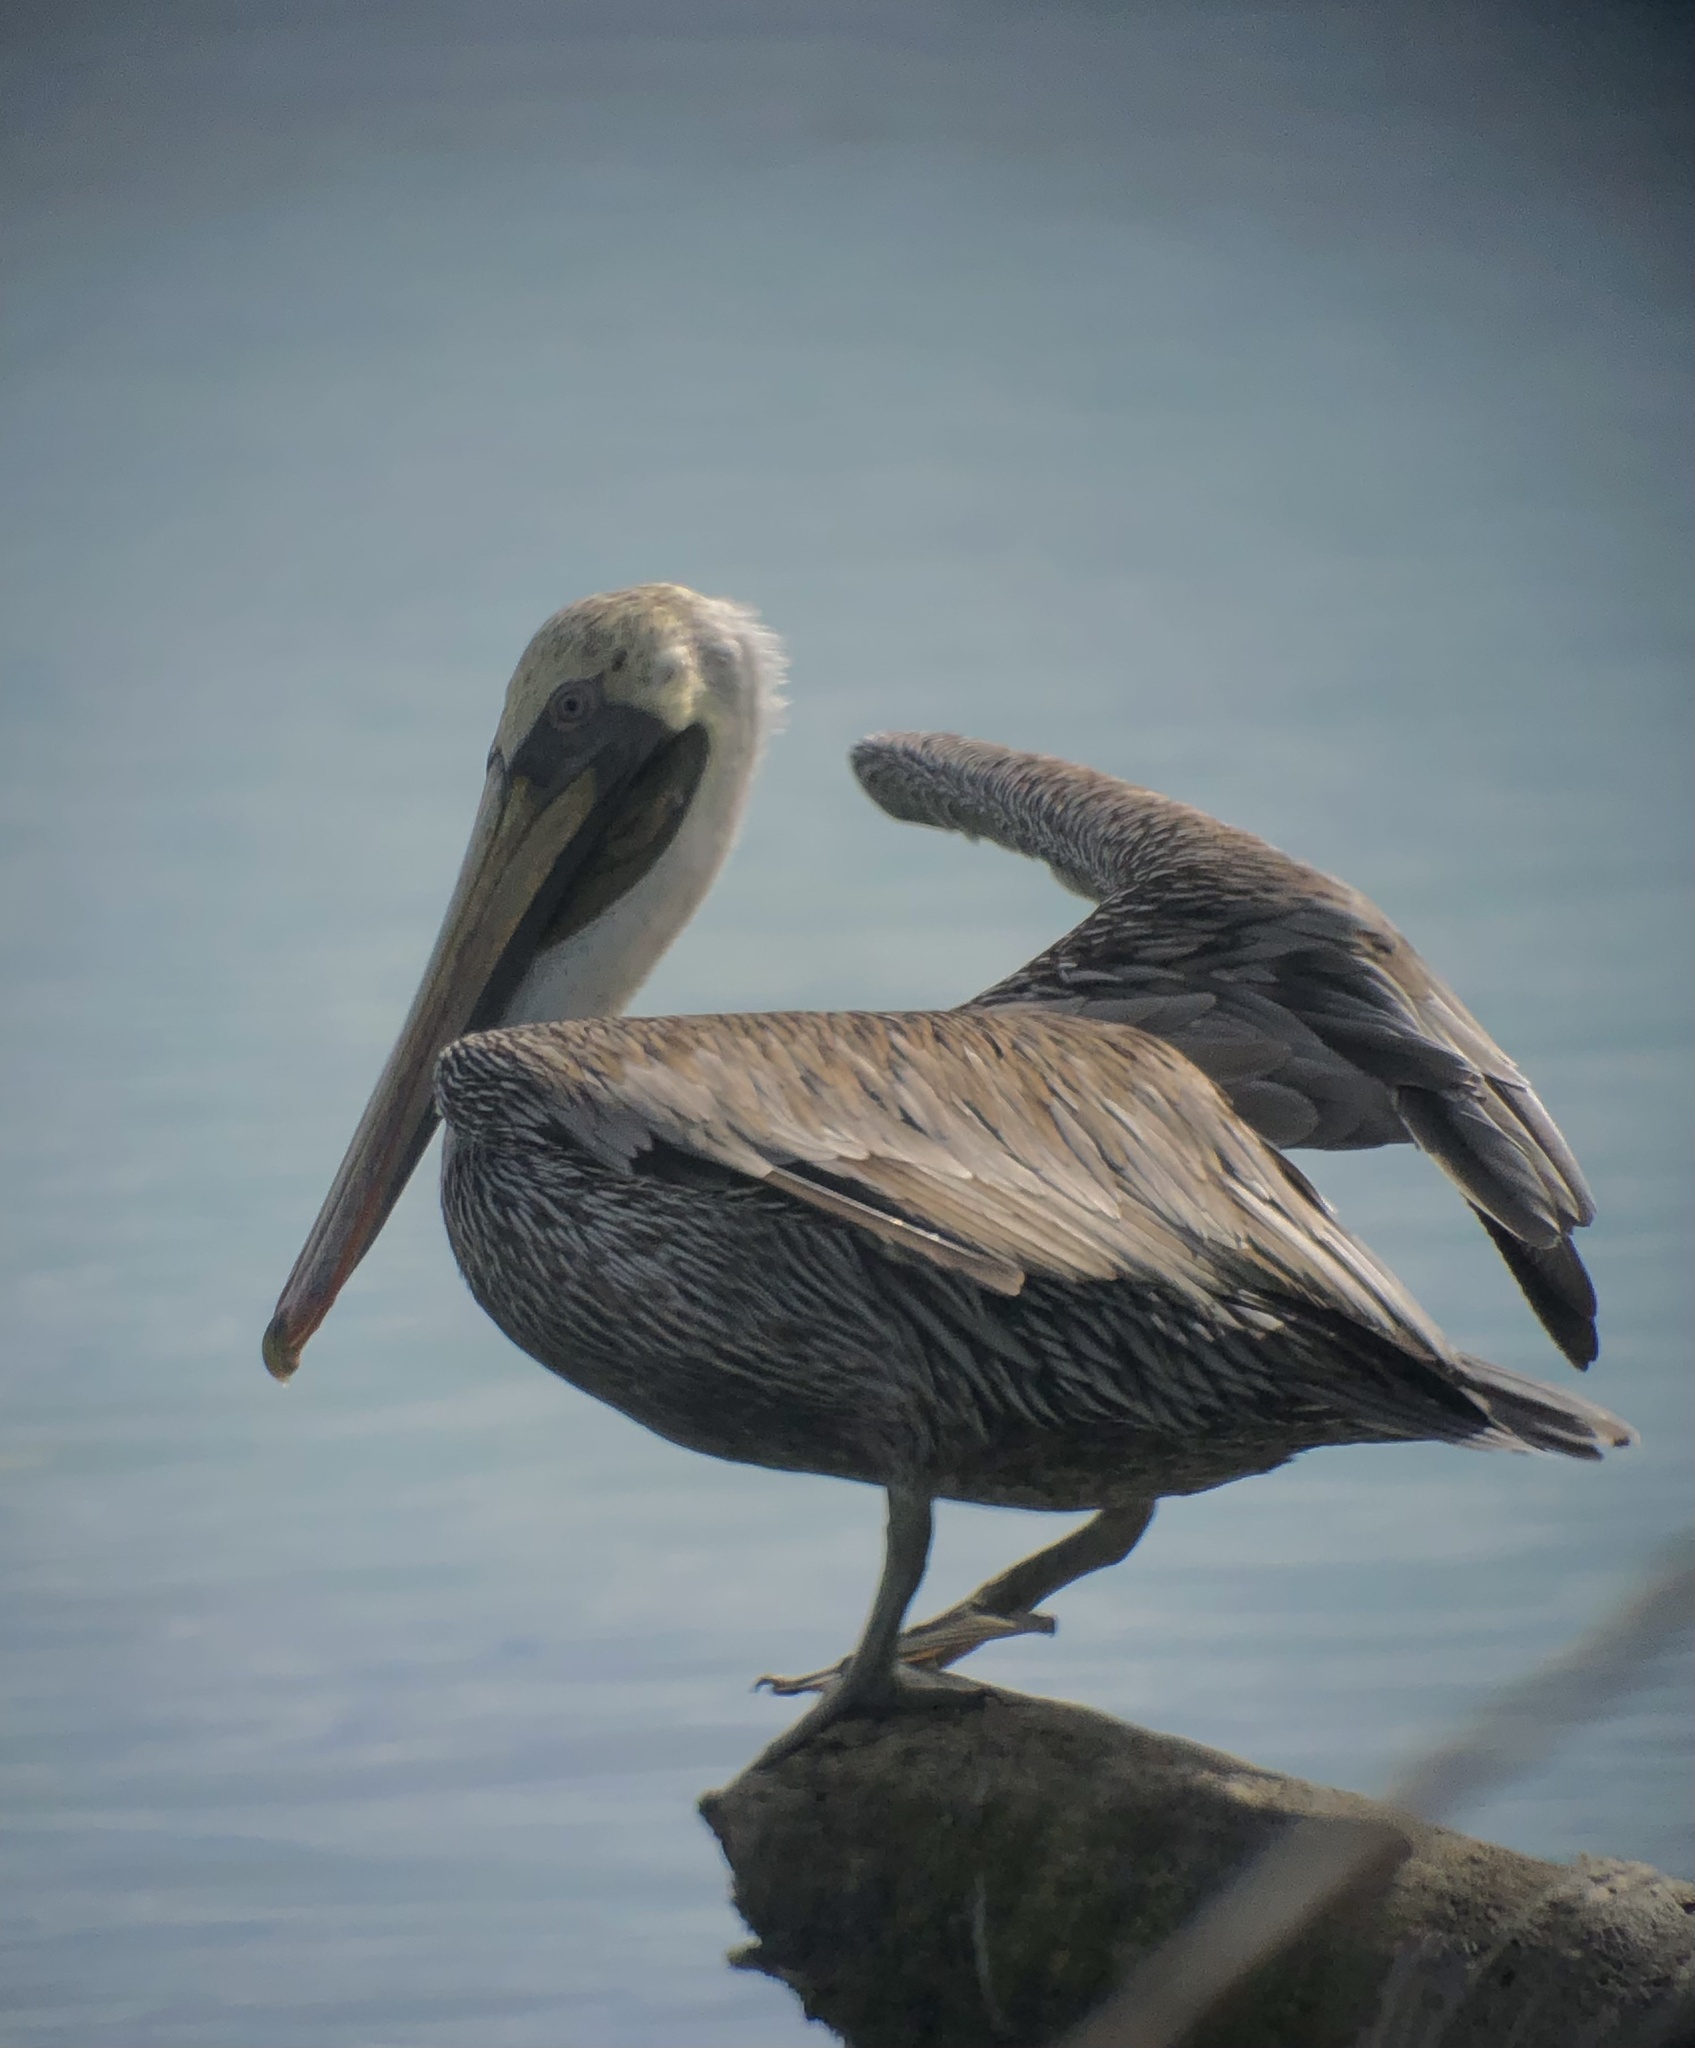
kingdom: Animalia
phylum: Chordata
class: Aves
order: Pelecaniformes
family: Pelecanidae
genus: Pelecanus
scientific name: Pelecanus occidentalis
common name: Brown pelican
